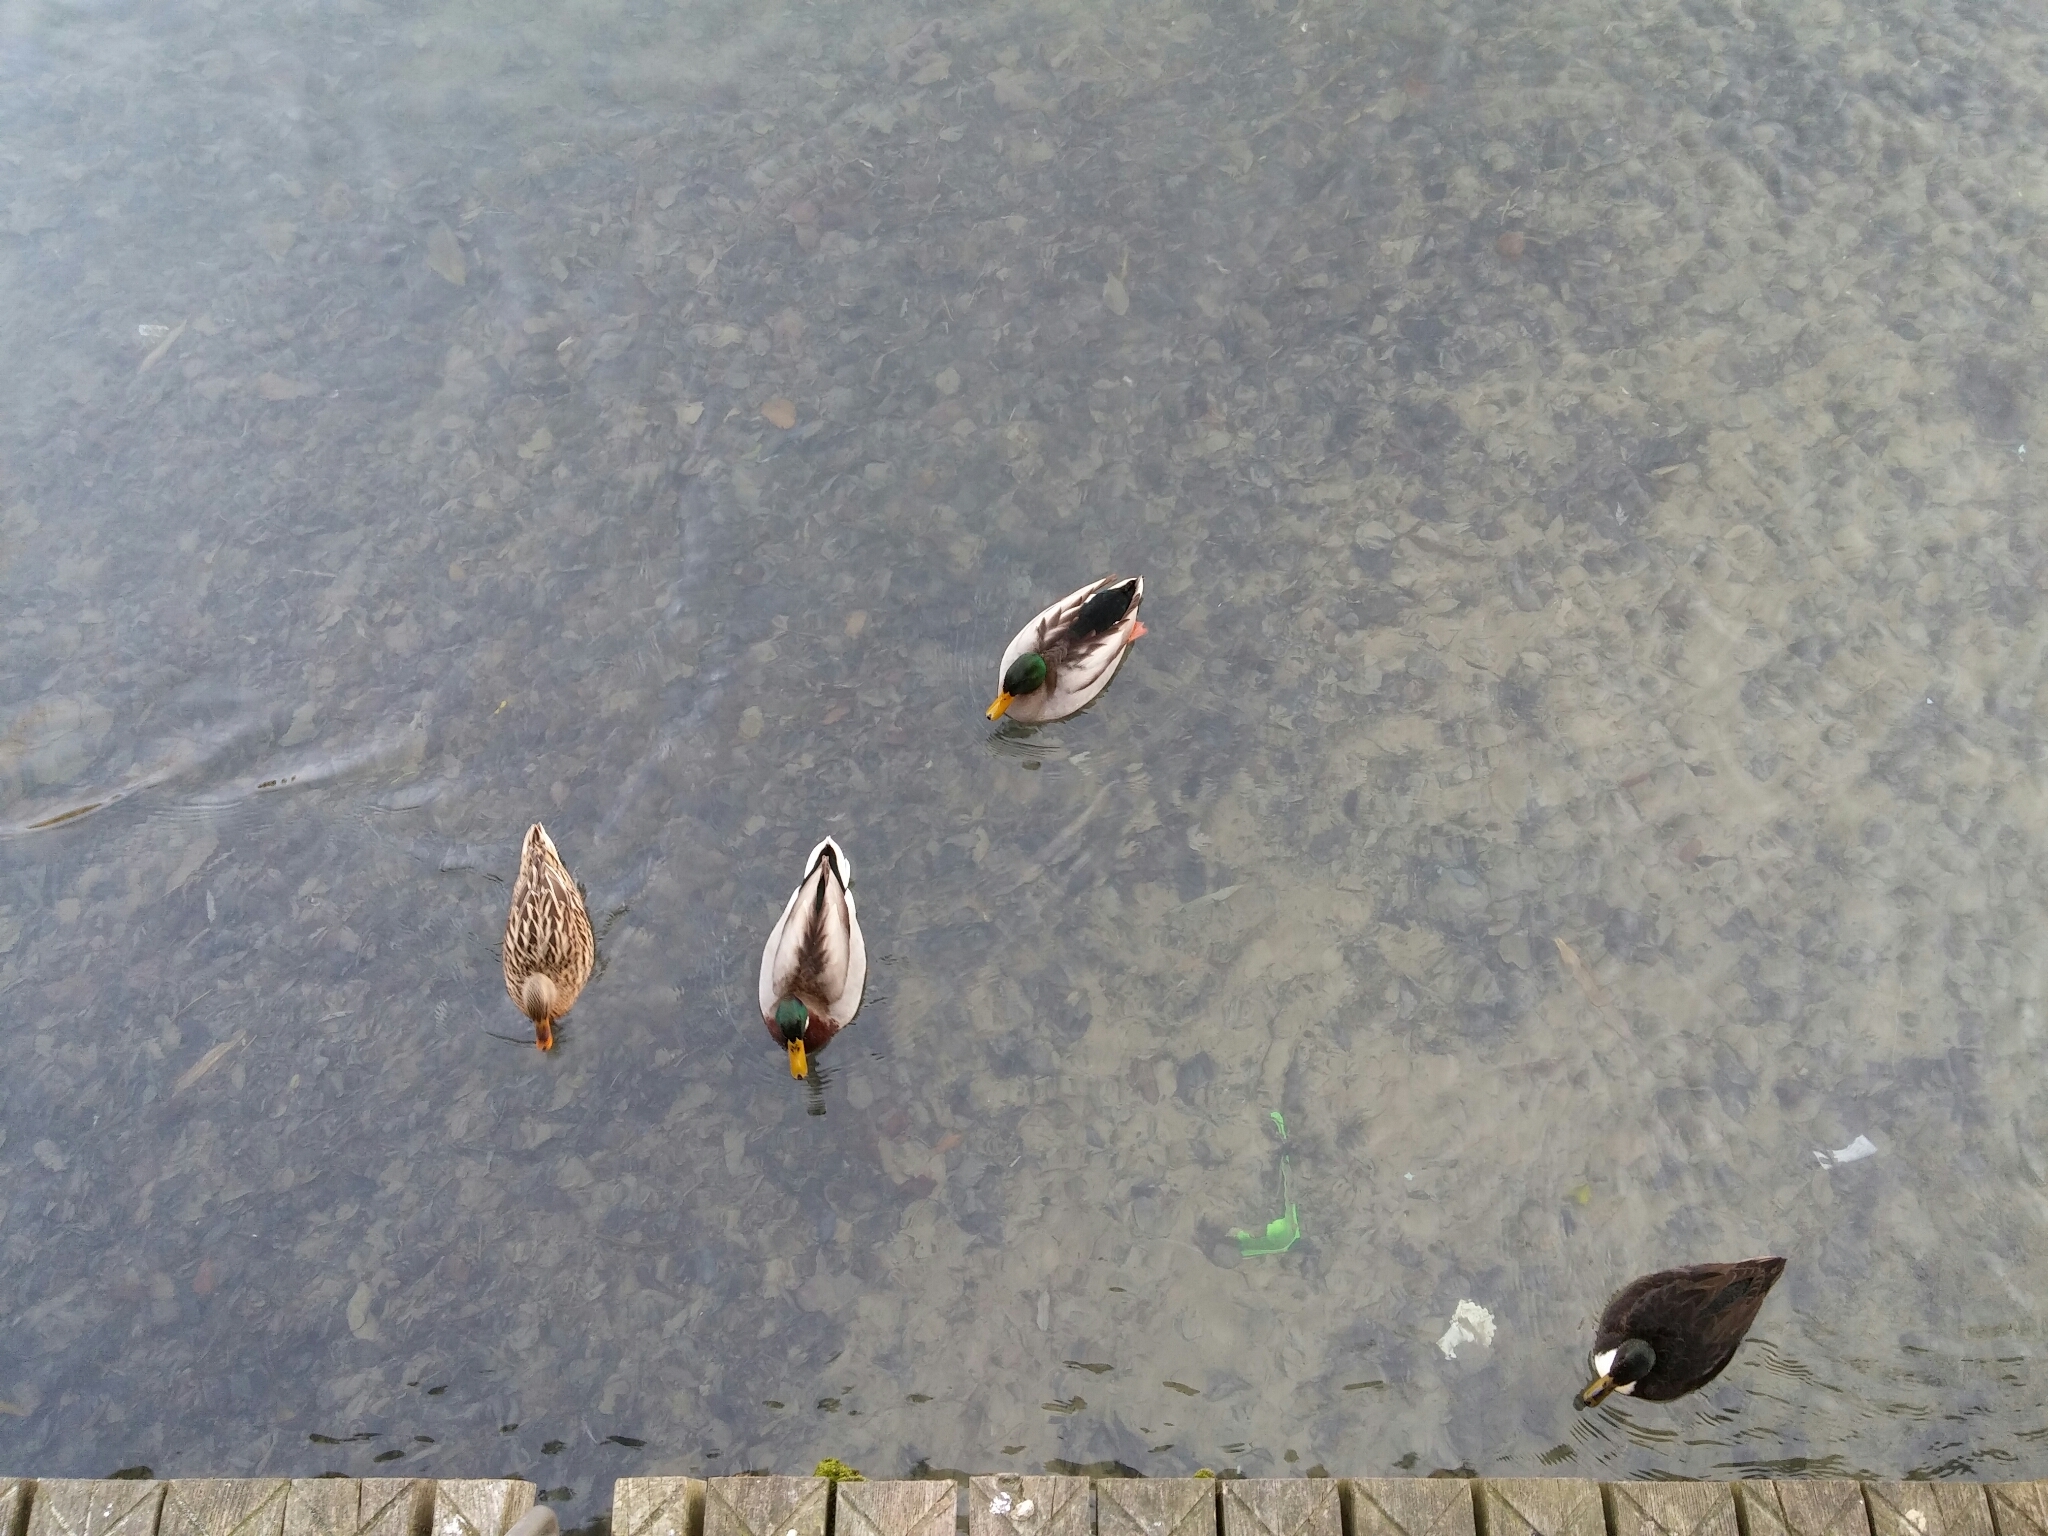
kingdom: Animalia
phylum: Chordata
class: Aves
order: Anseriformes
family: Anatidae
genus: Anas
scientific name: Anas platyrhynchos
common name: Mallard
